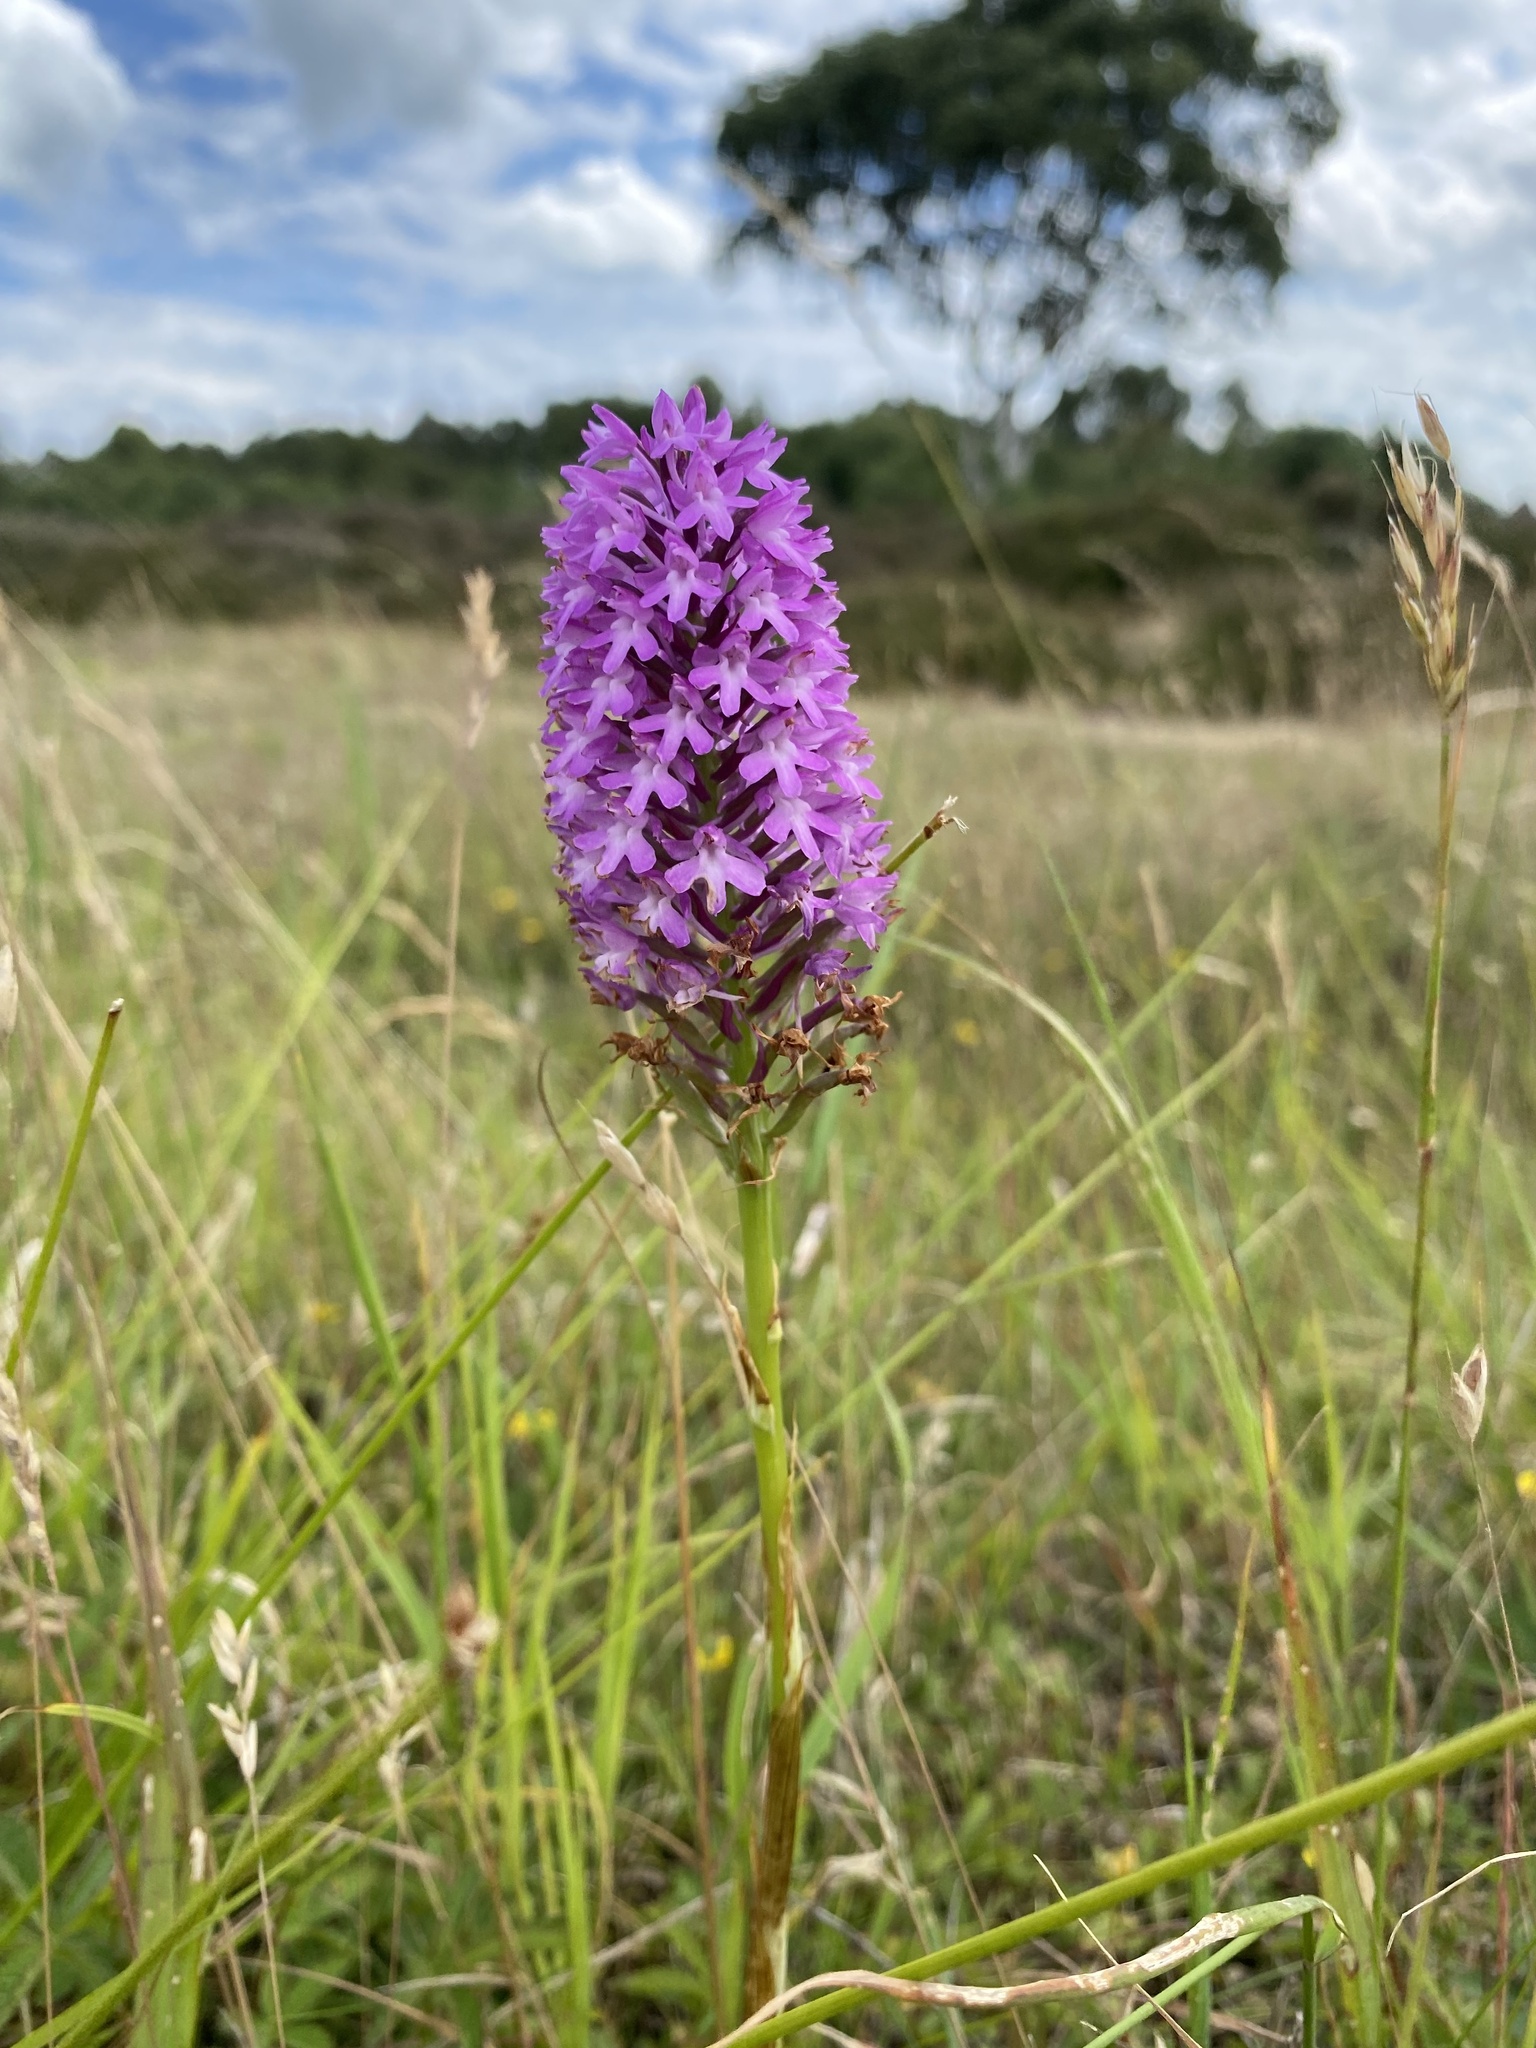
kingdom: Plantae
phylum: Tracheophyta
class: Liliopsida
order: Asparagales
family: Orchidaceae
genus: Anacamptis
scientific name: Anacamptis pyramidalis
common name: Pyramidal orchid
